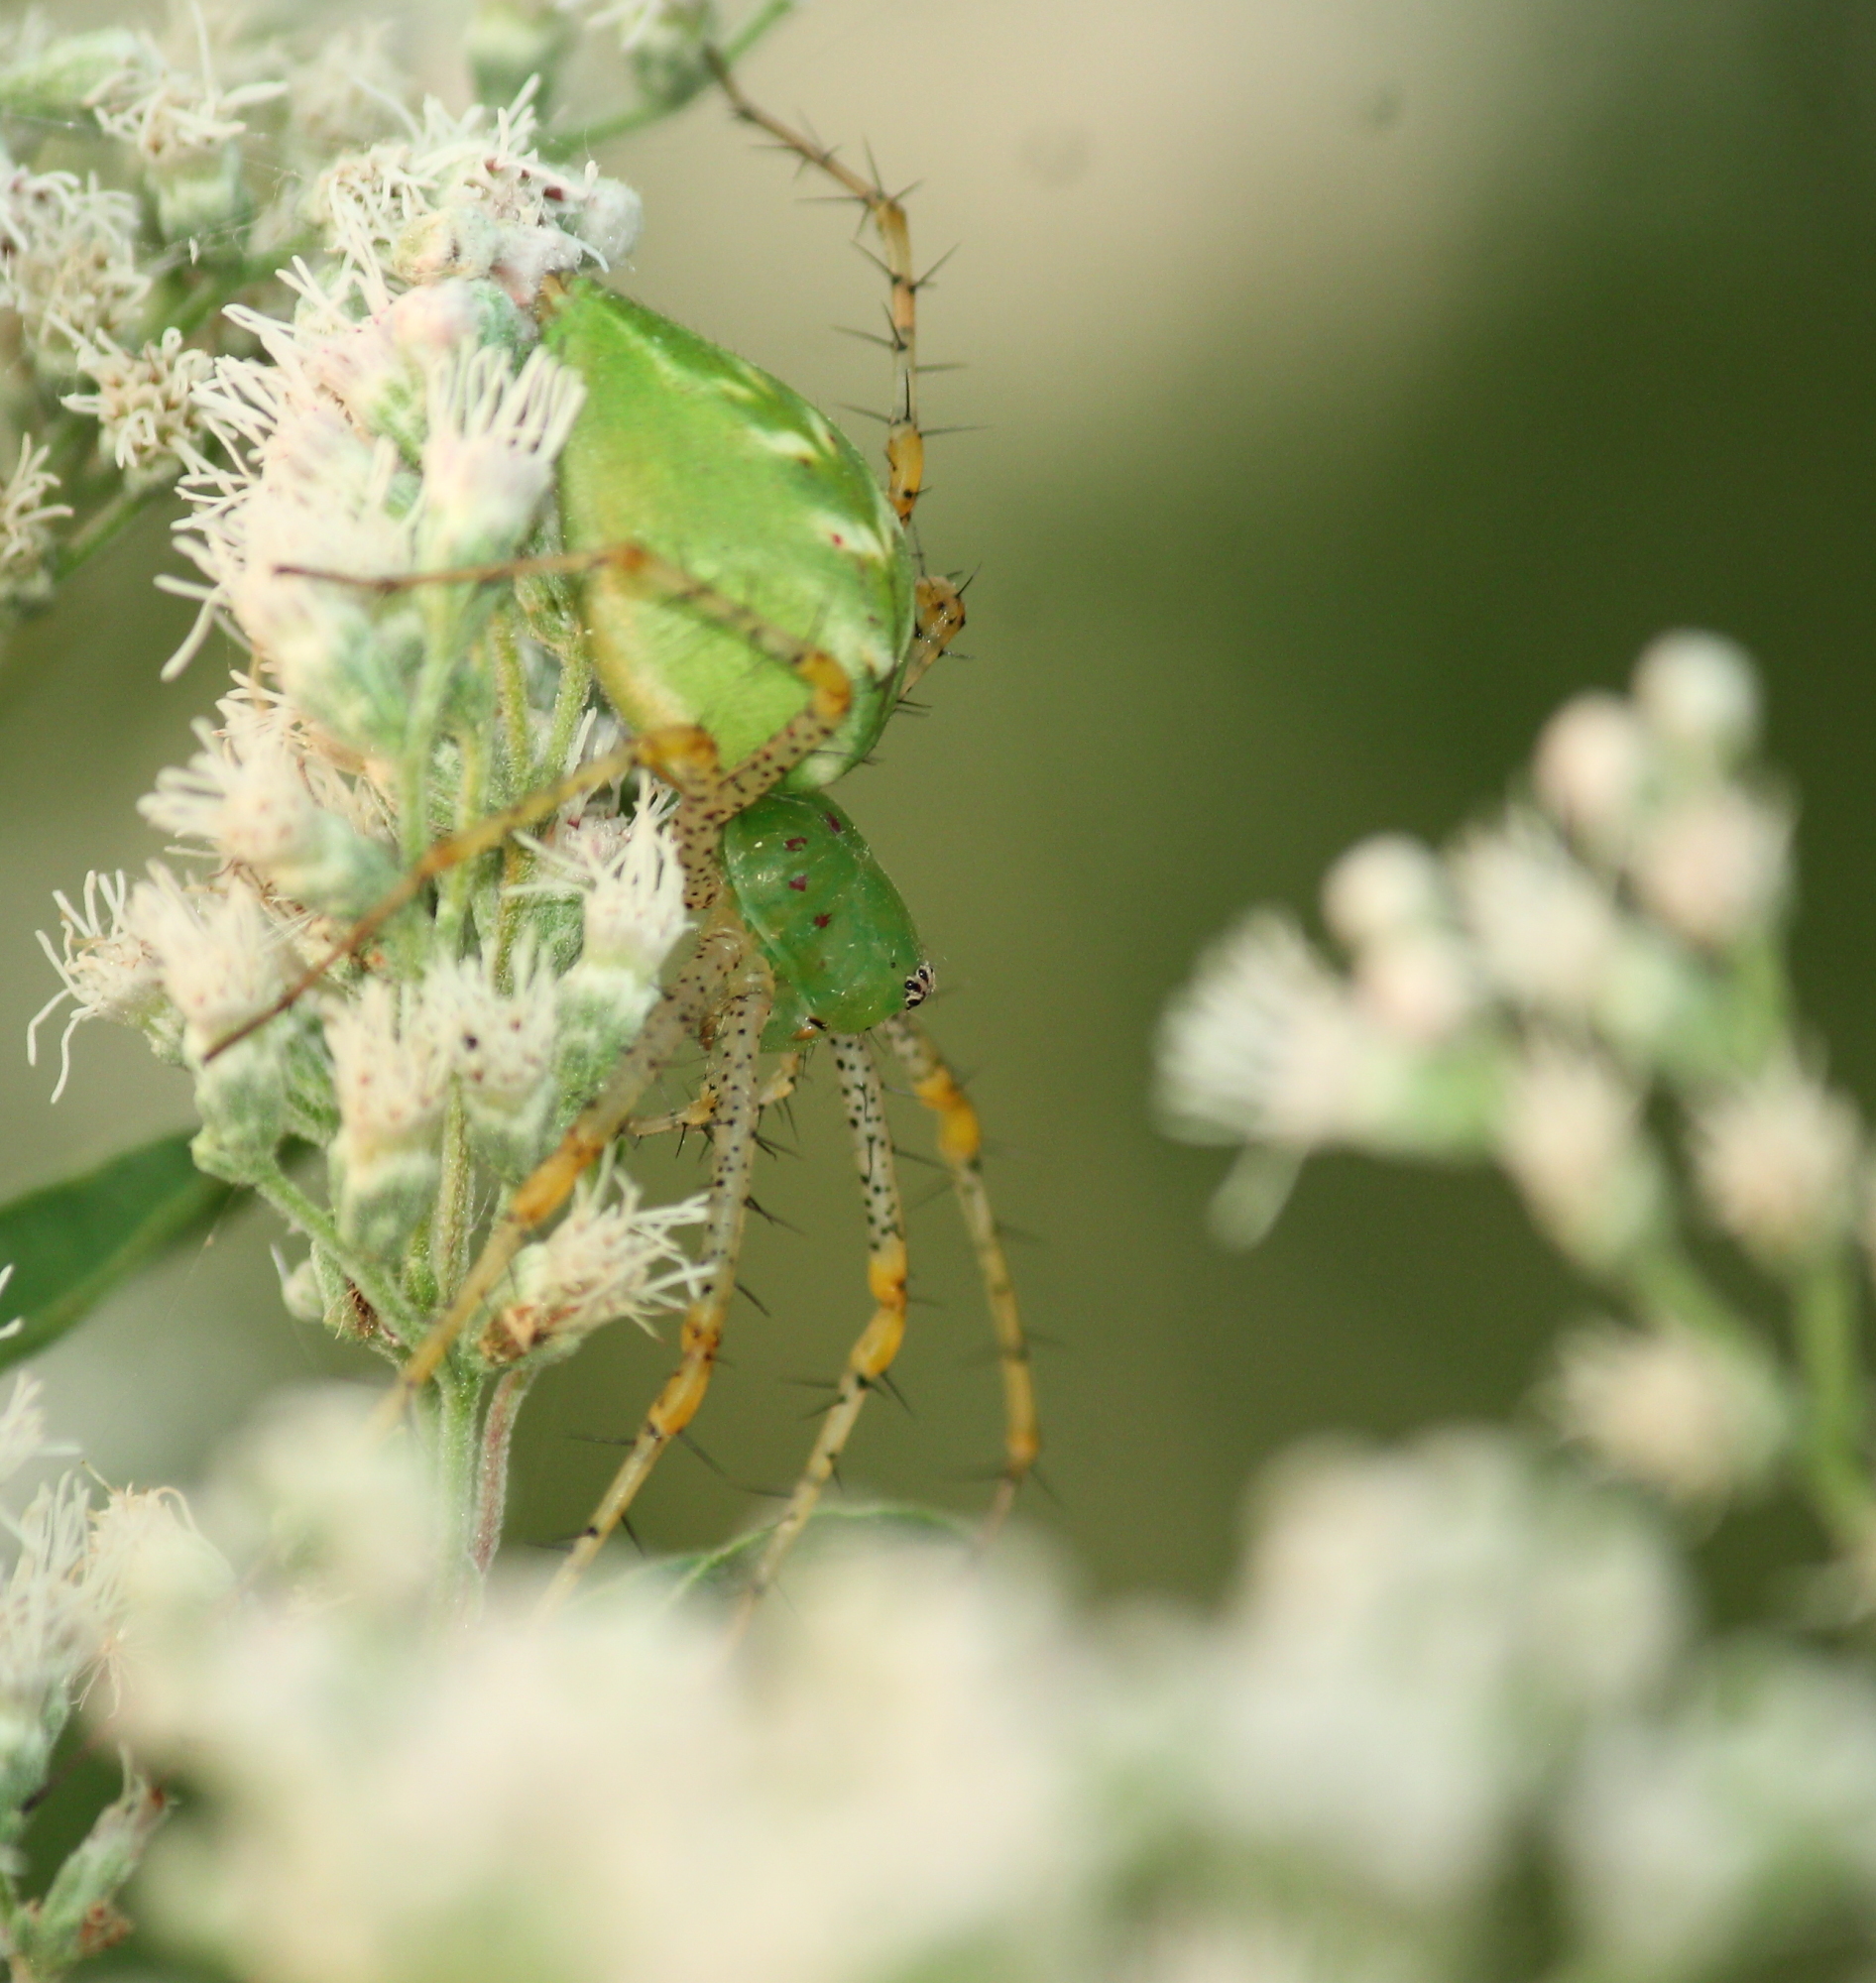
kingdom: Animalia
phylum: Arthropoda
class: Arachnida
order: Araneae
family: Oxyopidae
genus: Peucetia
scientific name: Peucetia viridans
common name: Lynx spiders
